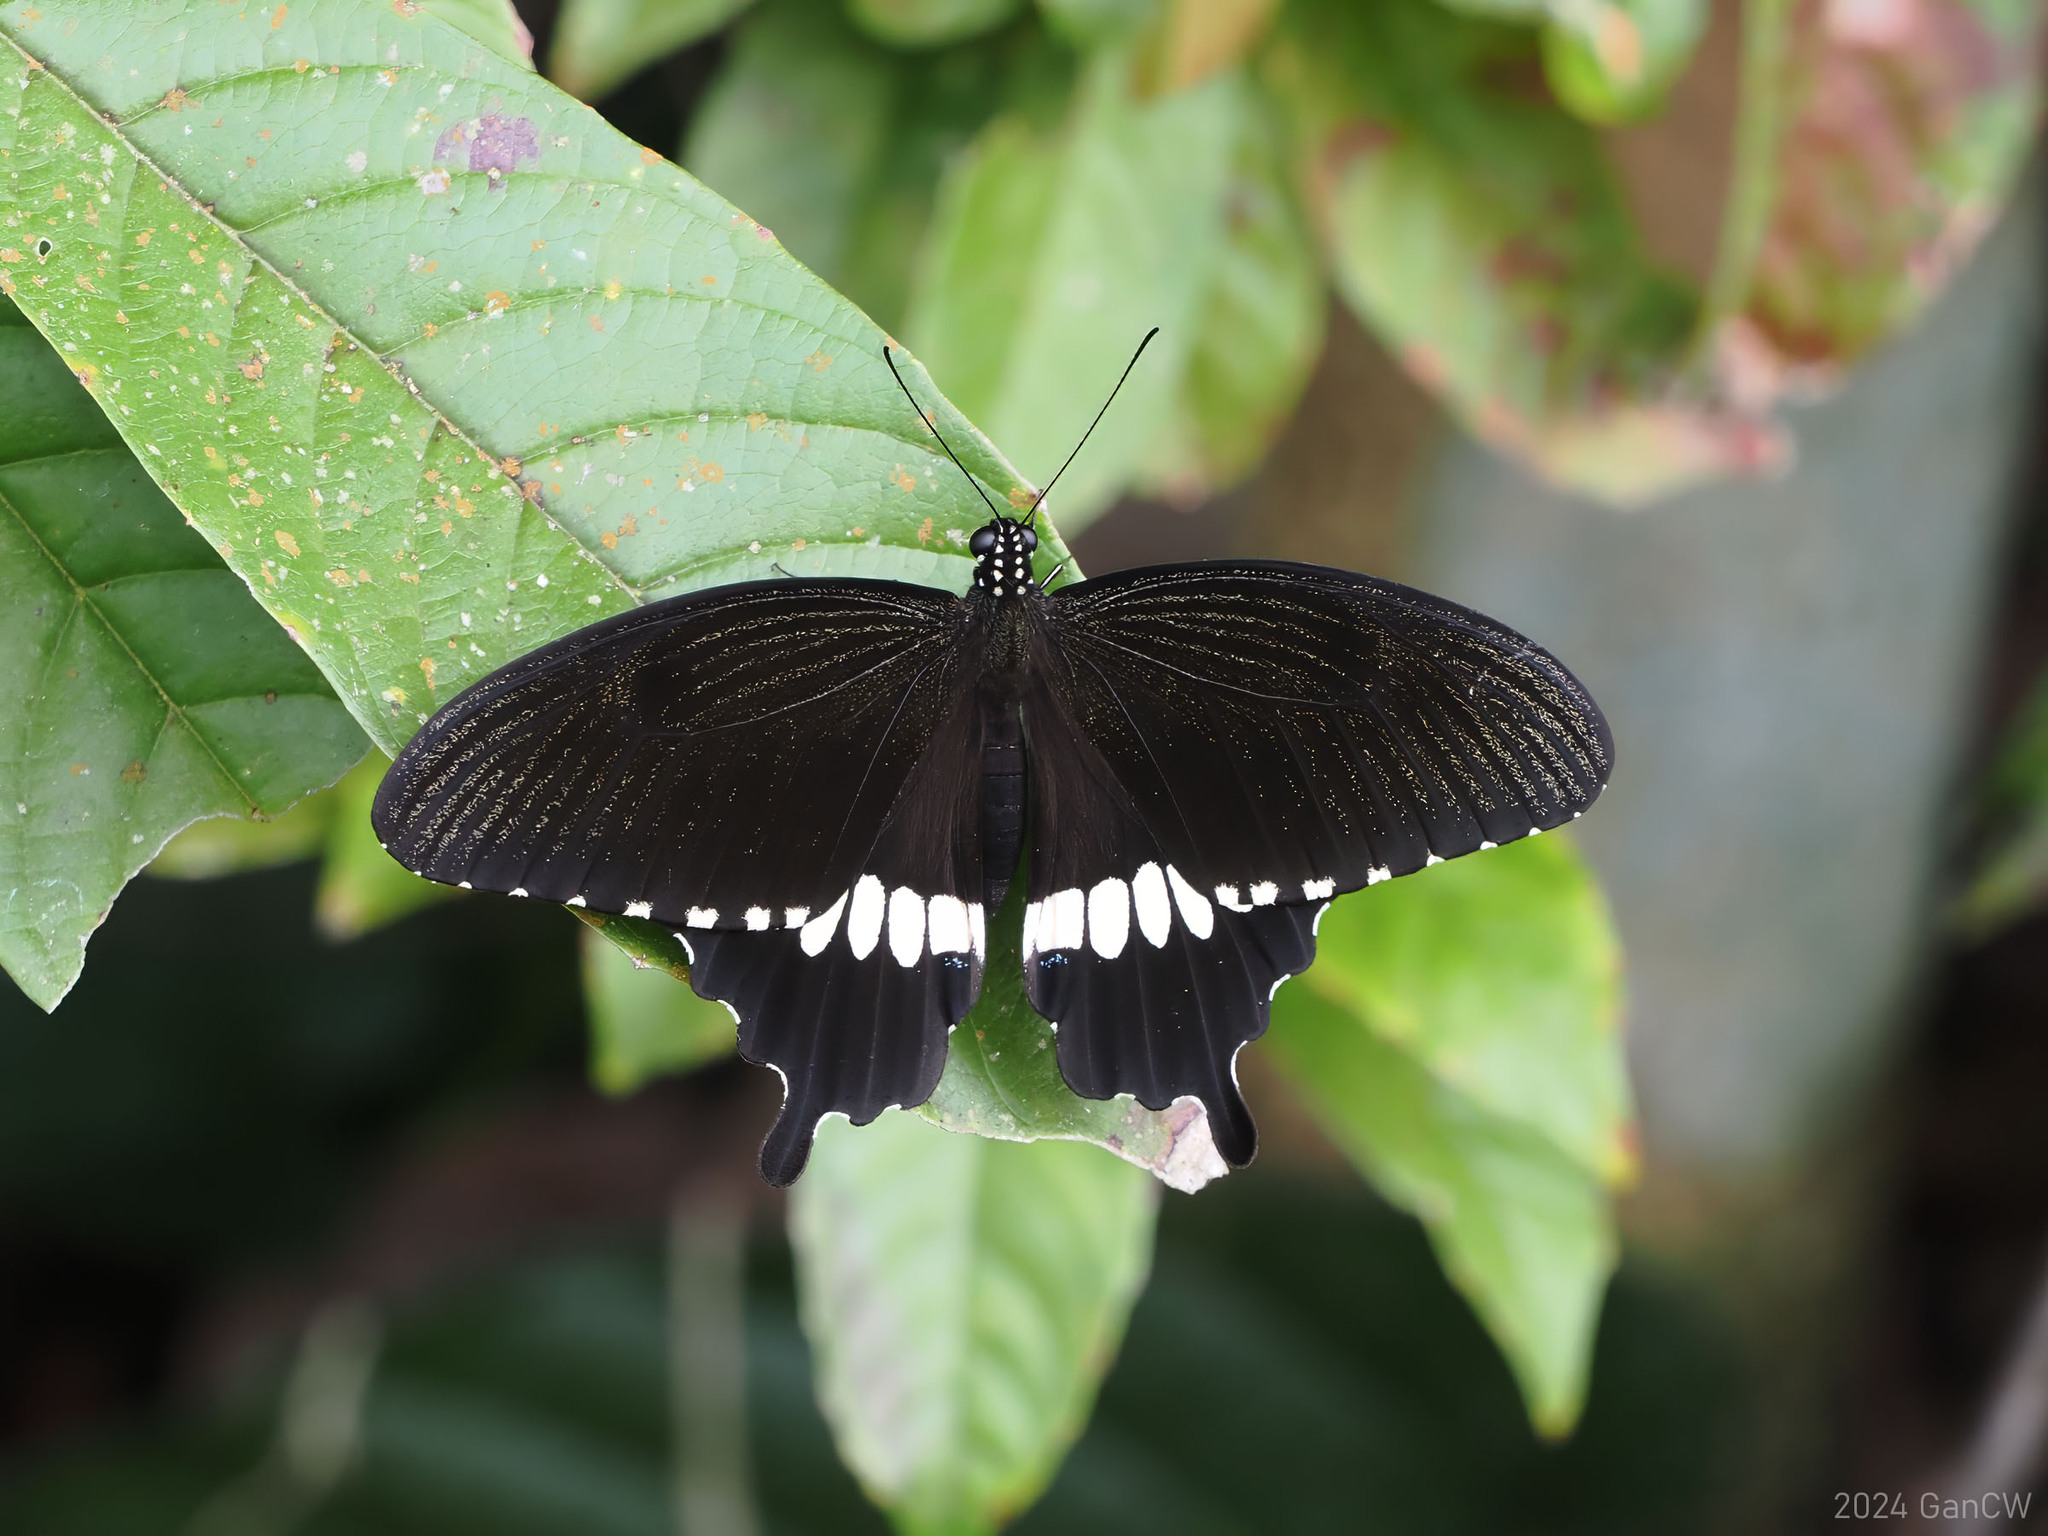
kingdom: Animalia
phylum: Arthropoda
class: Insecta
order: Lepidoptera
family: Papilionidae
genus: Papilio
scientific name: Papilio polytes
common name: Common mormon
